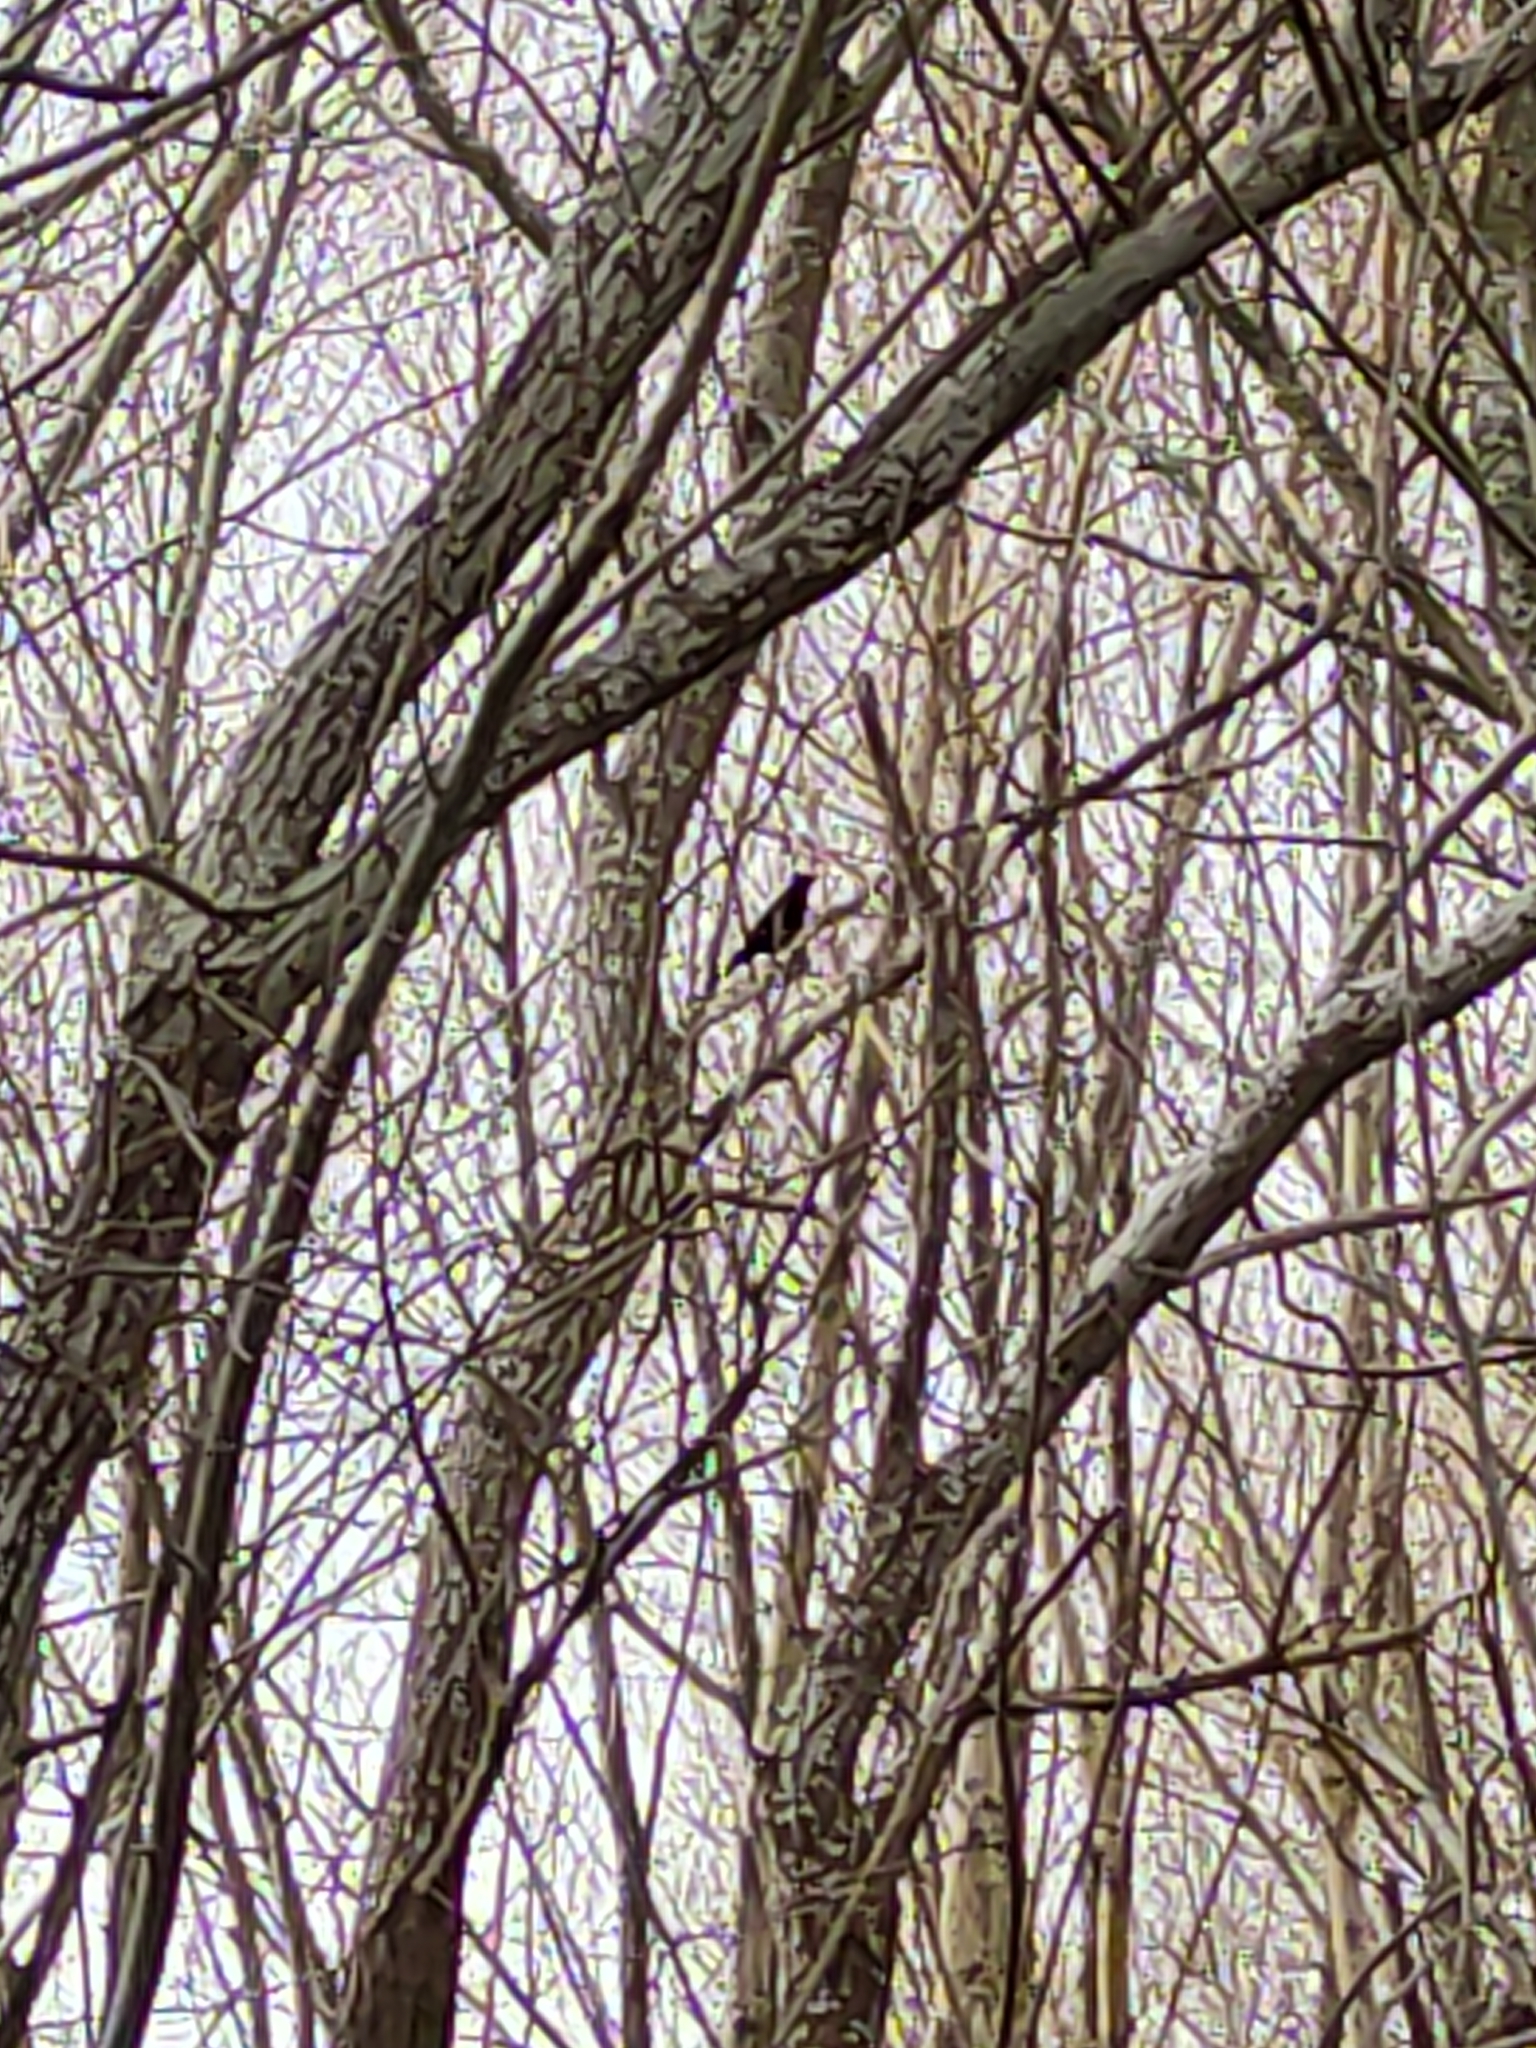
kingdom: Animalia
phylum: Chordata
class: Aves
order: Passeriformes
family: Turdidae
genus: Turdus
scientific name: Turdus merula
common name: Common blackbird
